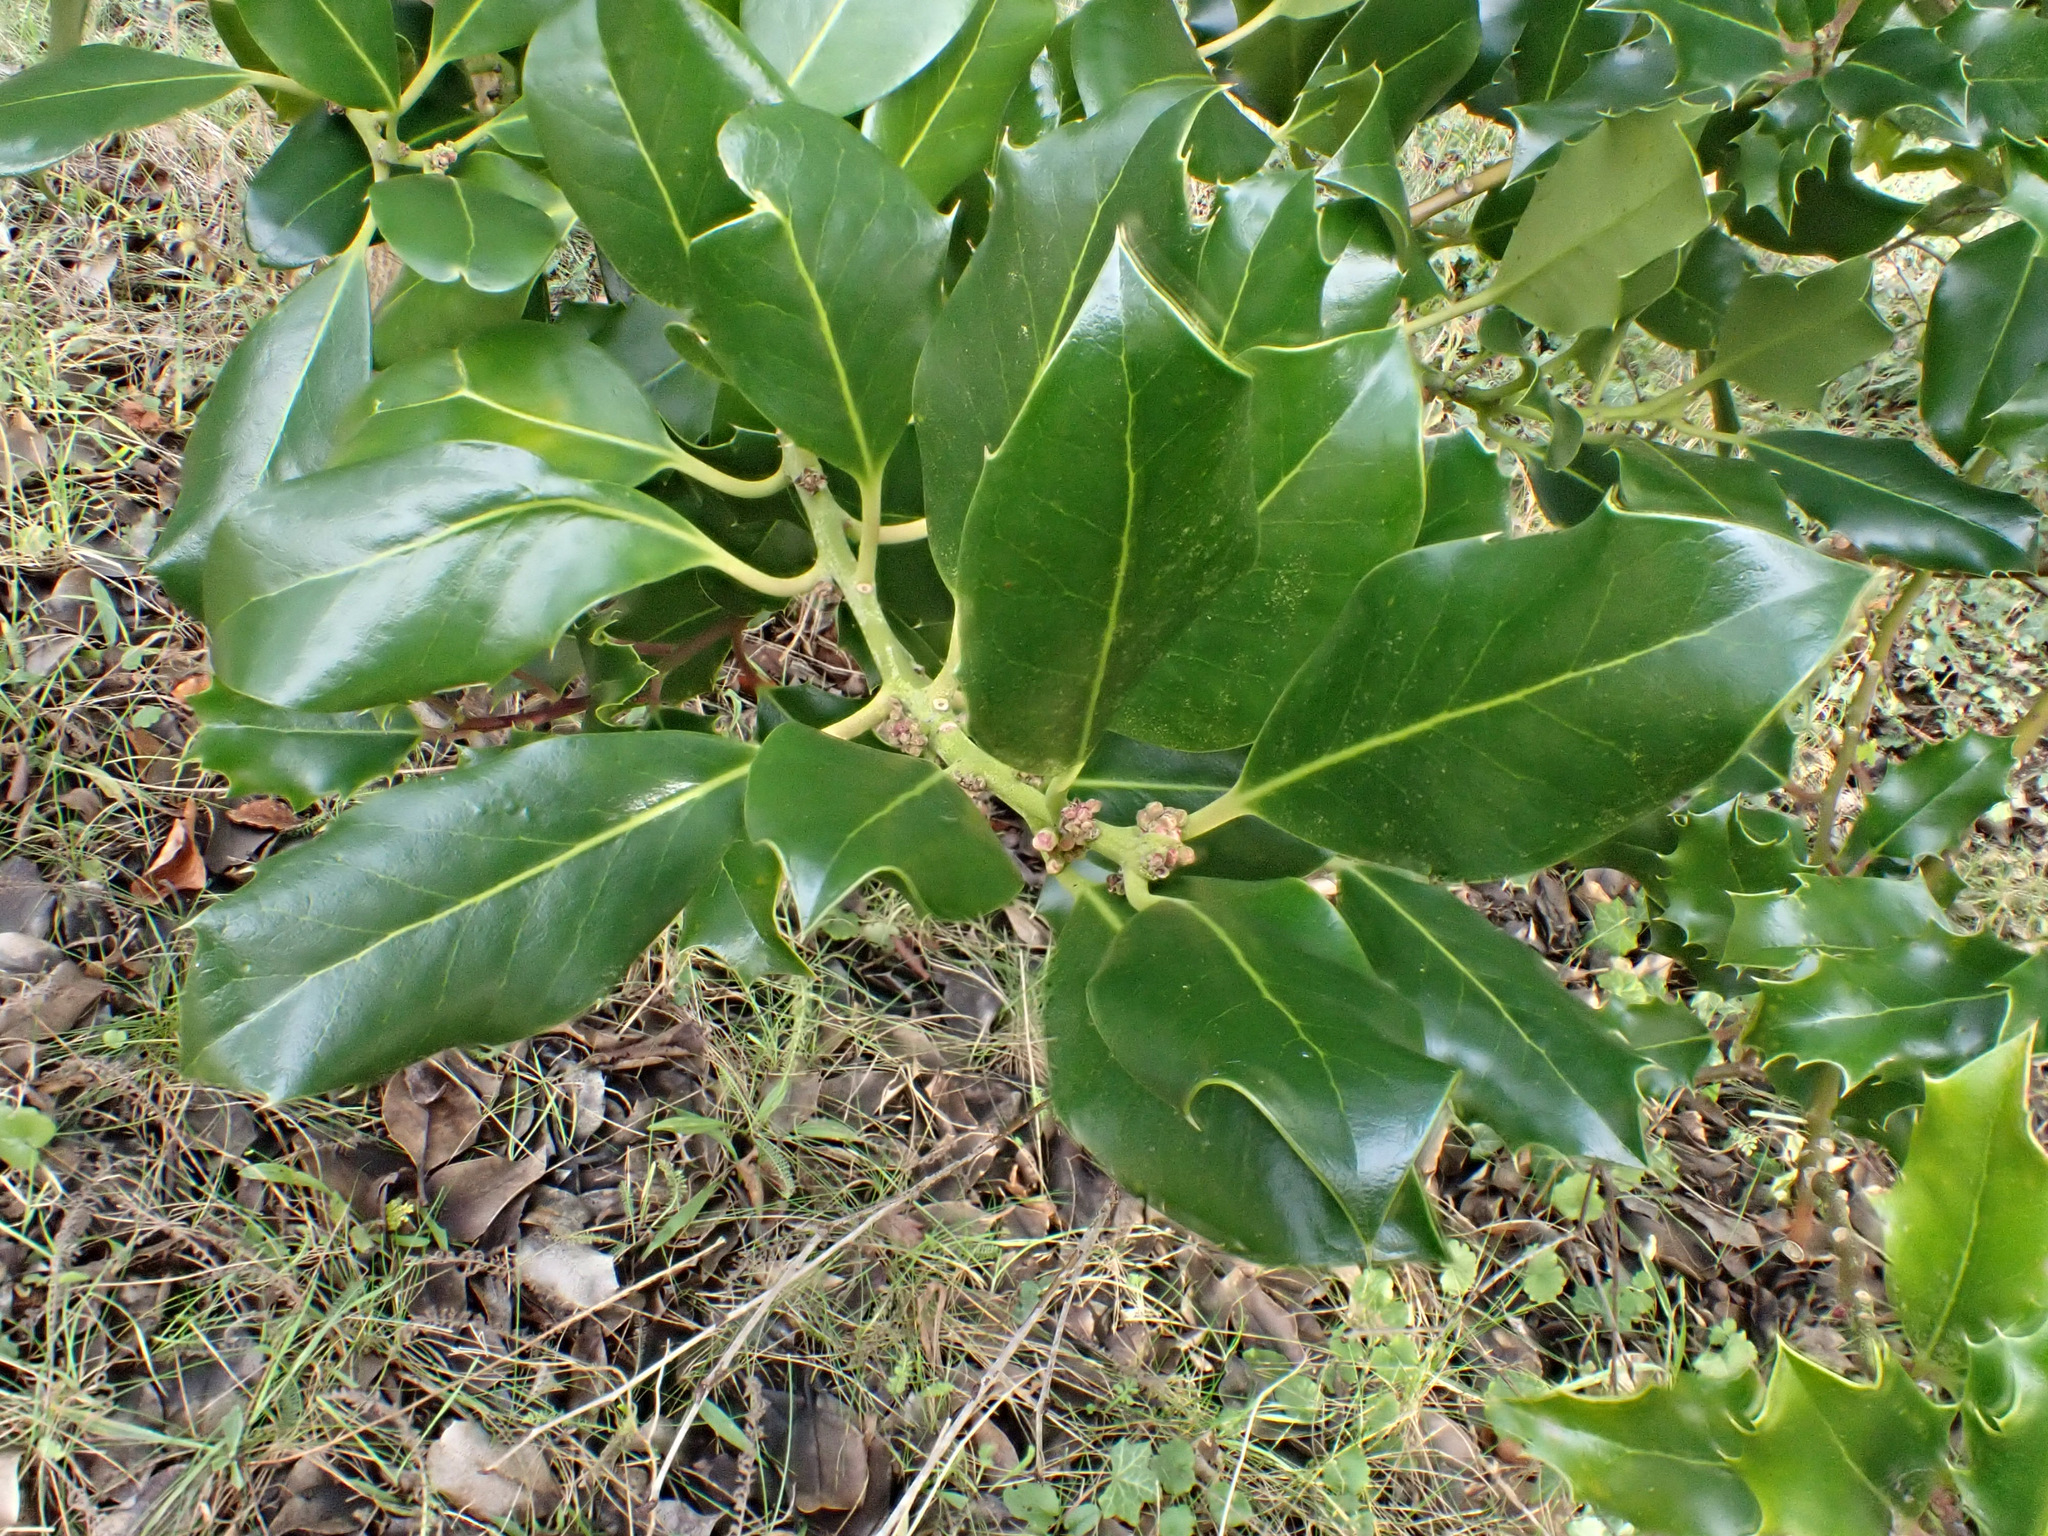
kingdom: Plantae
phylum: Tracheophyta
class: Magnoliopsida
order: Aquifoliales
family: Aquifoliaceae
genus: Ilex
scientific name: Ilex aquifolium
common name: English holly
